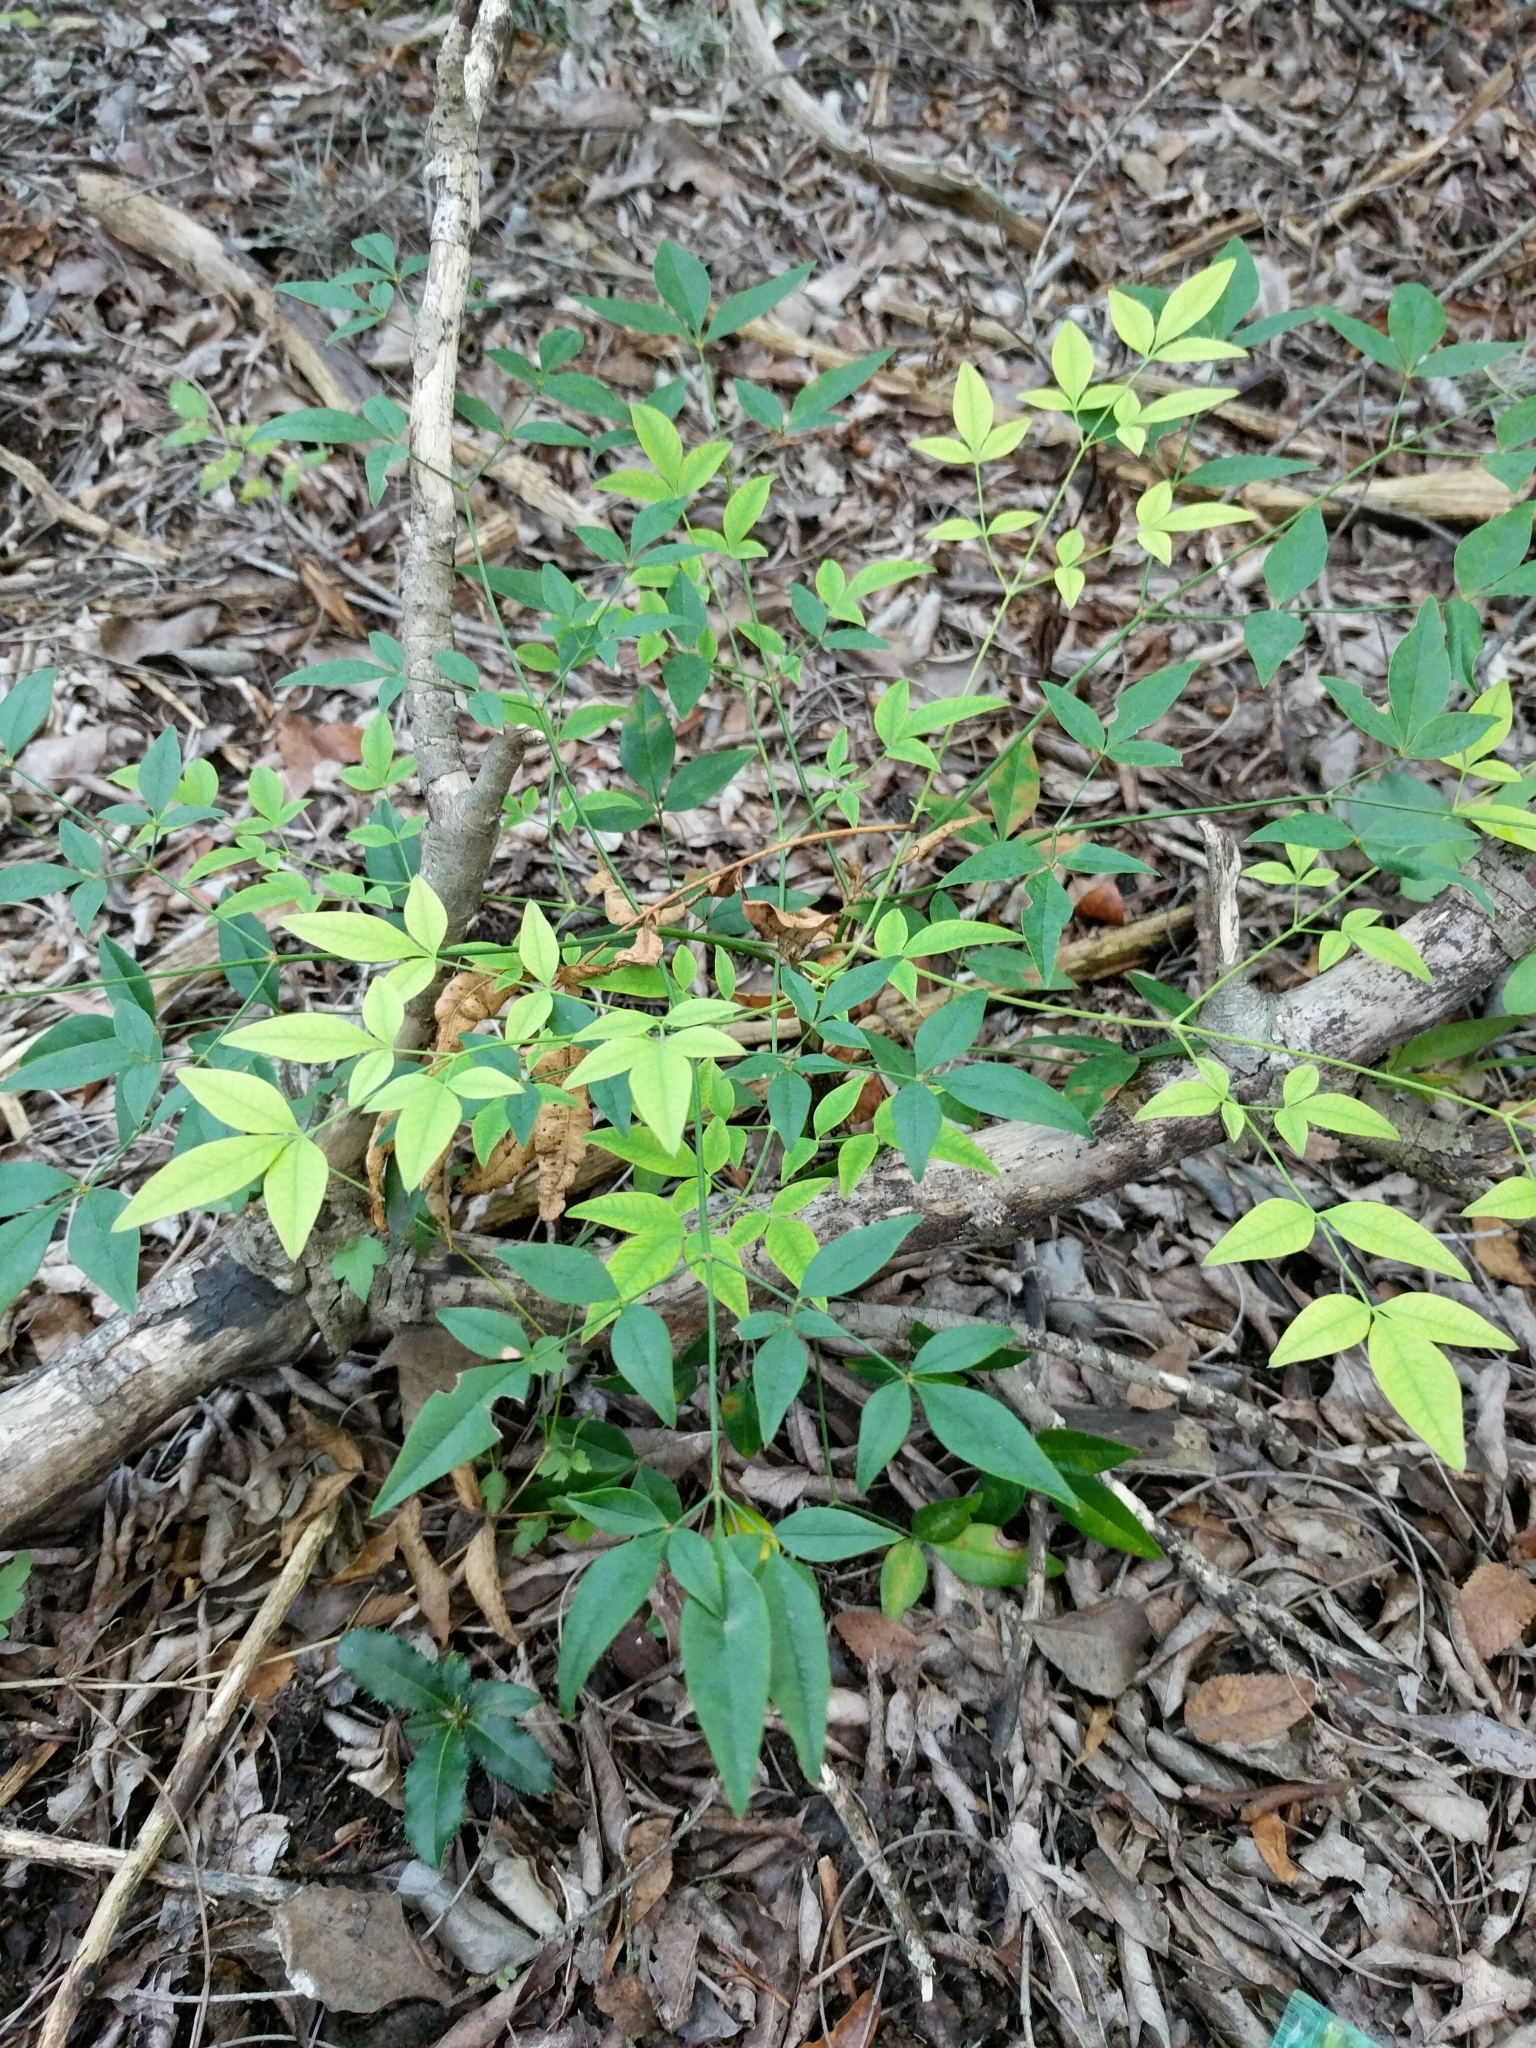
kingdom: Plantae
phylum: Tracheophyta
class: Magnoliopsida
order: Ranunculales
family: Berberidaceae
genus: Nandina
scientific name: Nandina domestica
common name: Sacred bamboo
